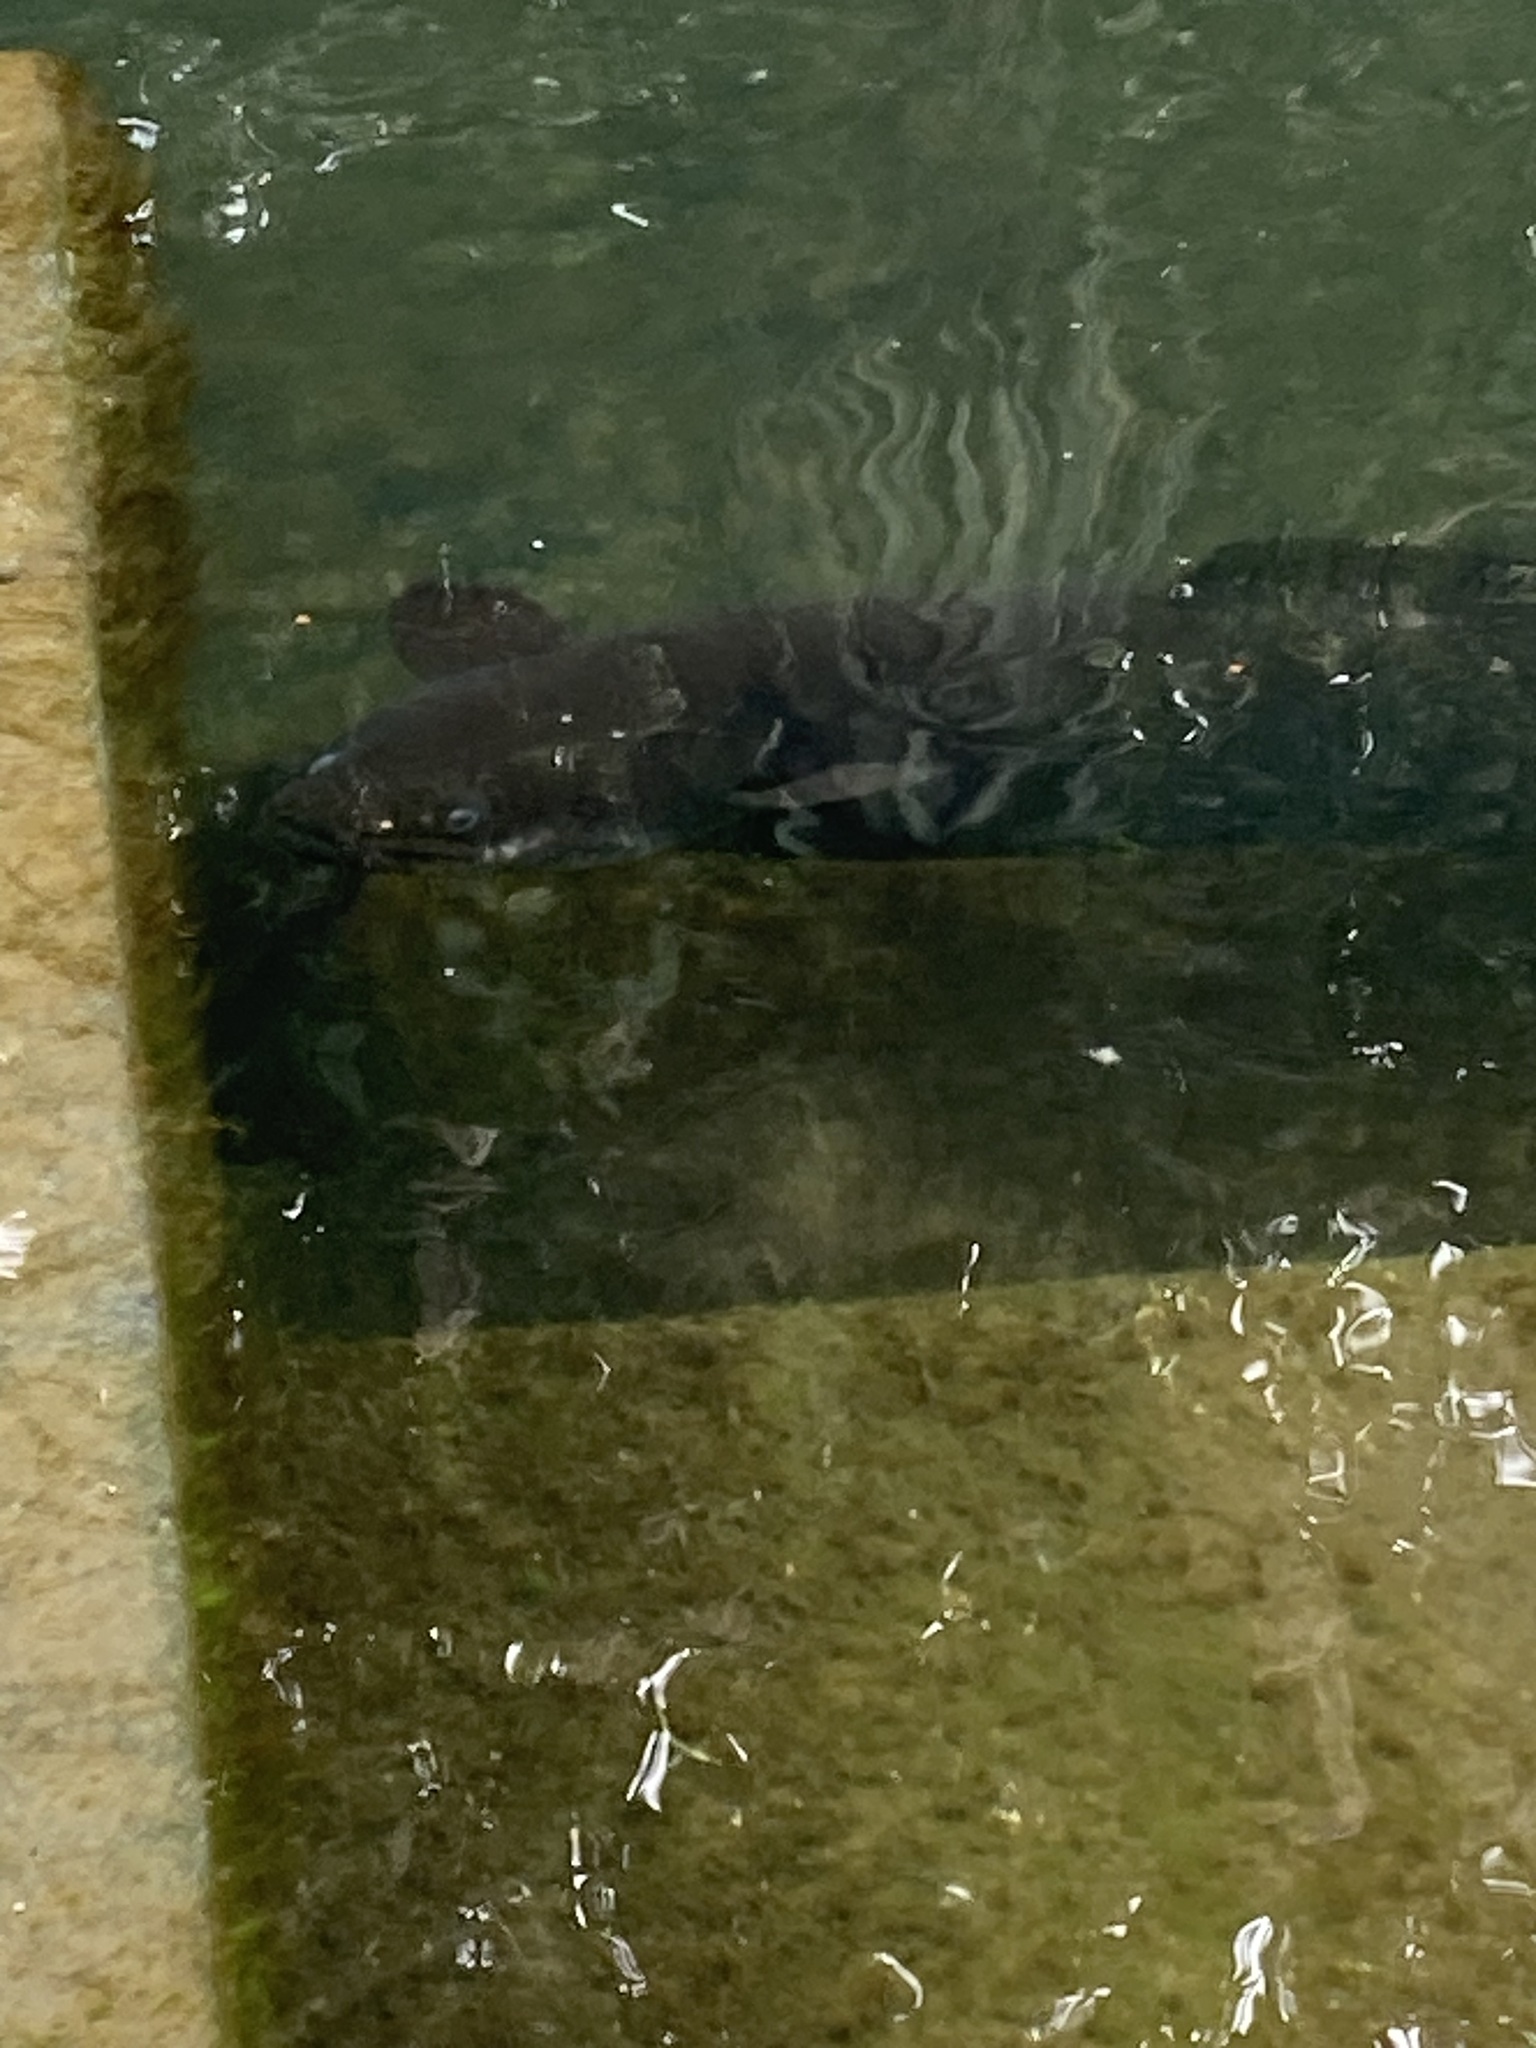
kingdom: Animalia
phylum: Chordata
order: Anguilliformes
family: Anguillidae
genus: Anguilla
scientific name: Anguilla dieffenbachii
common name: New zealand longfin eel
